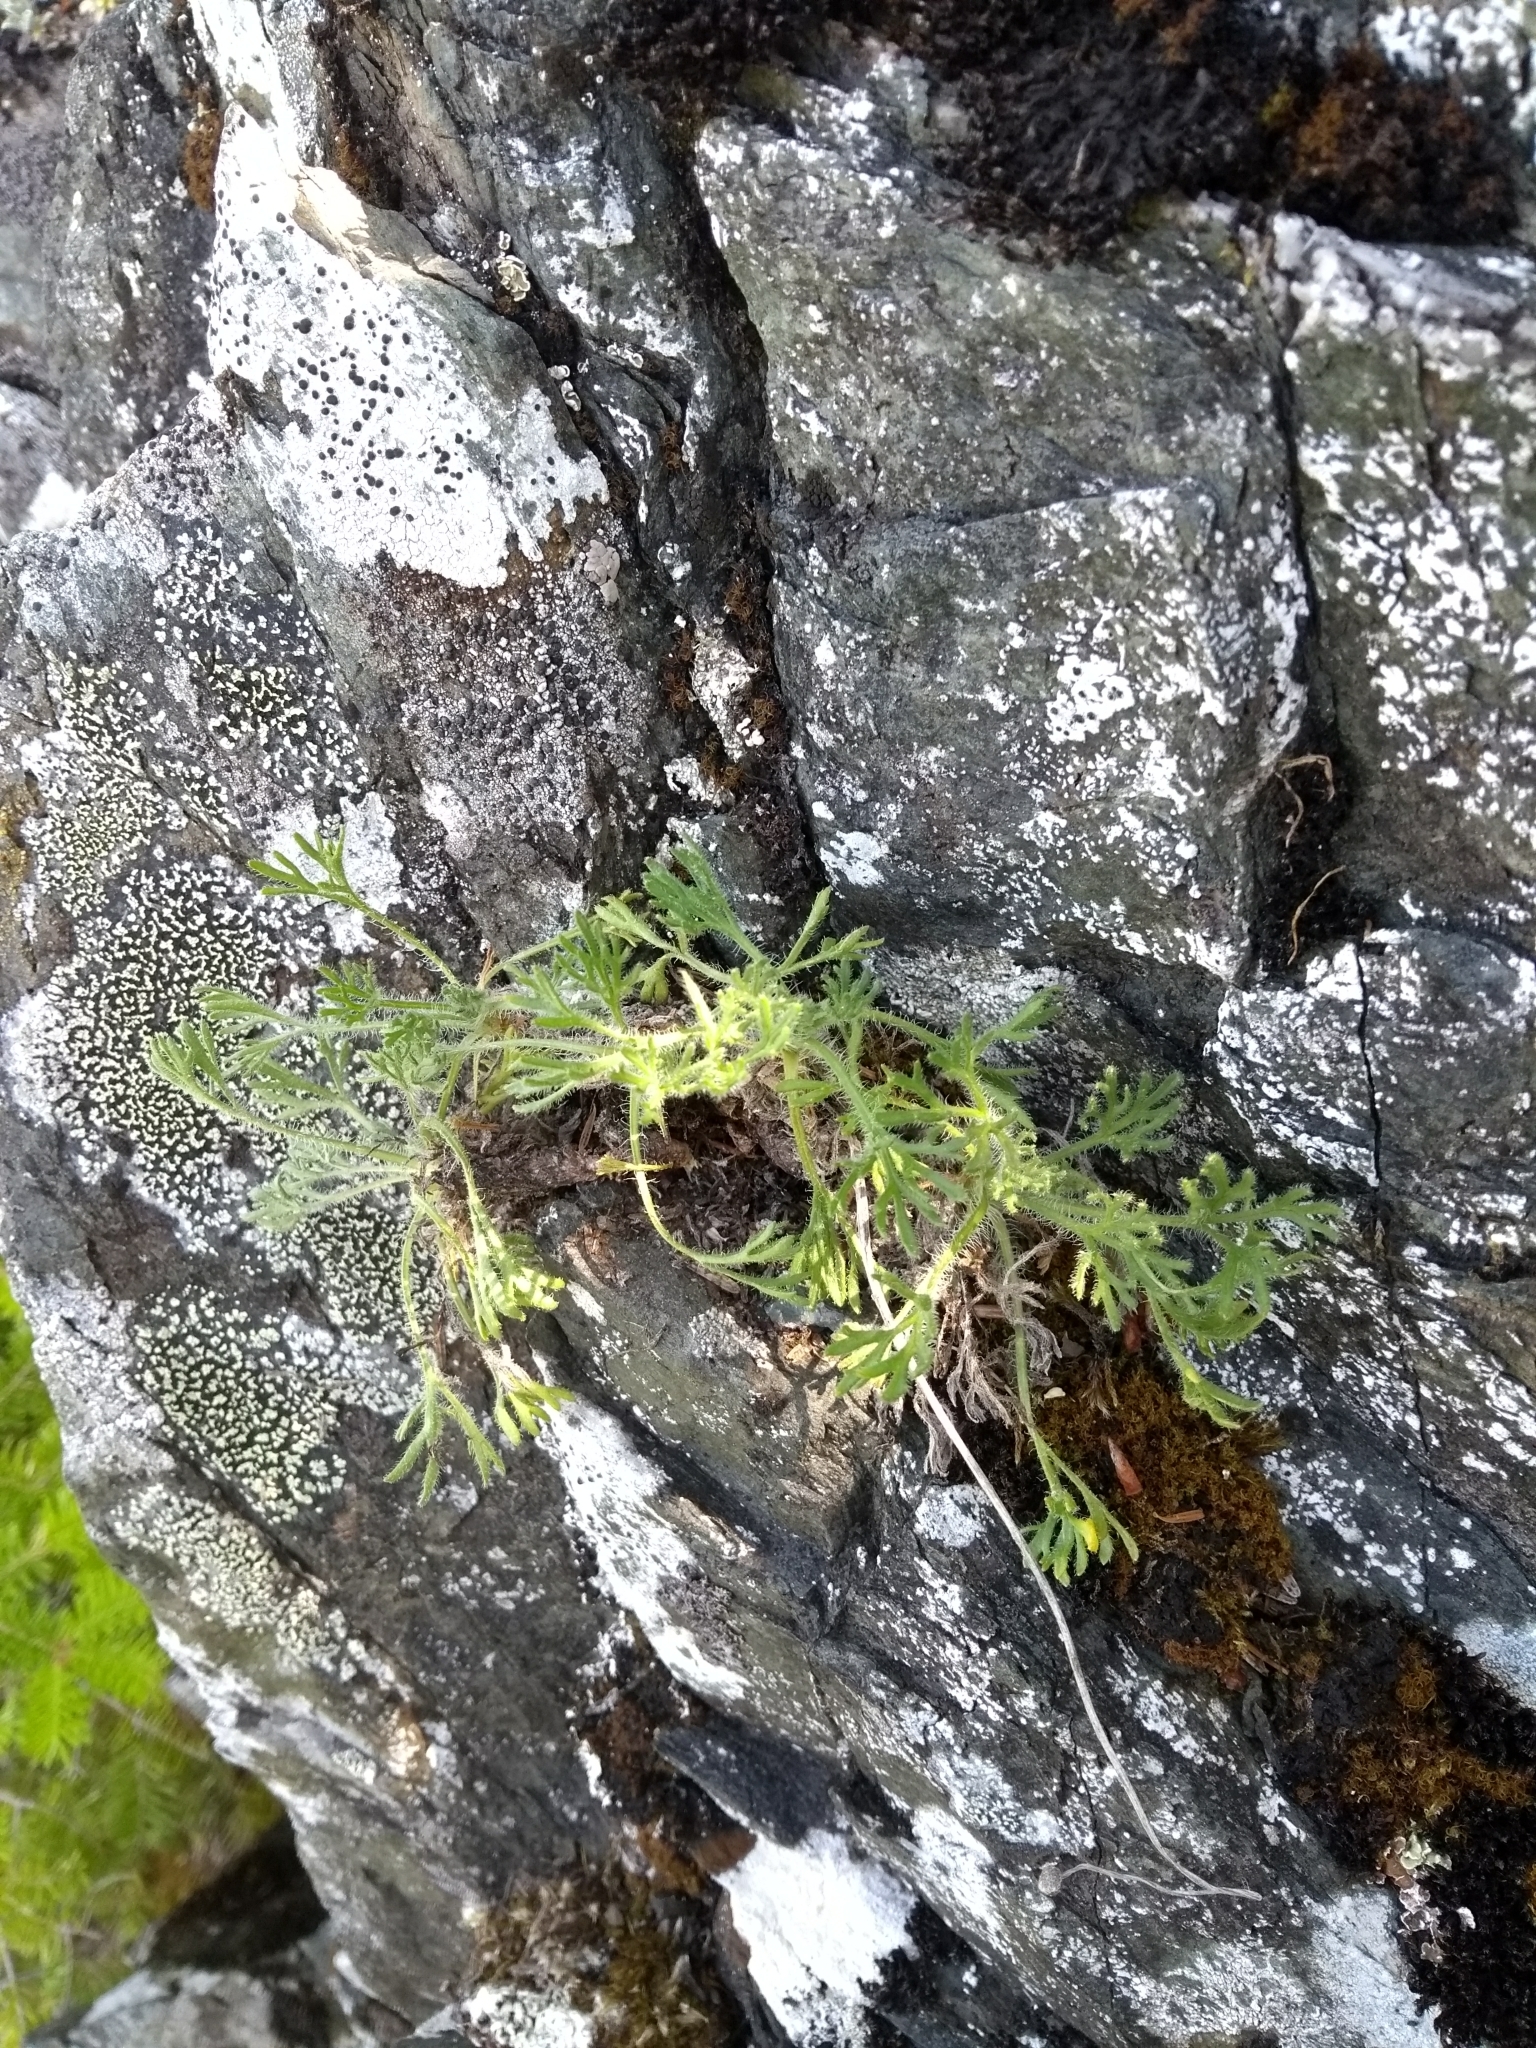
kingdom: Plantae
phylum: Tracheophyta
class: Magnoliopsida
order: Asterales
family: Asteraceae
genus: Erigeron
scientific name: Erigeron compositus
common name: Dwarf mountain fleabane
